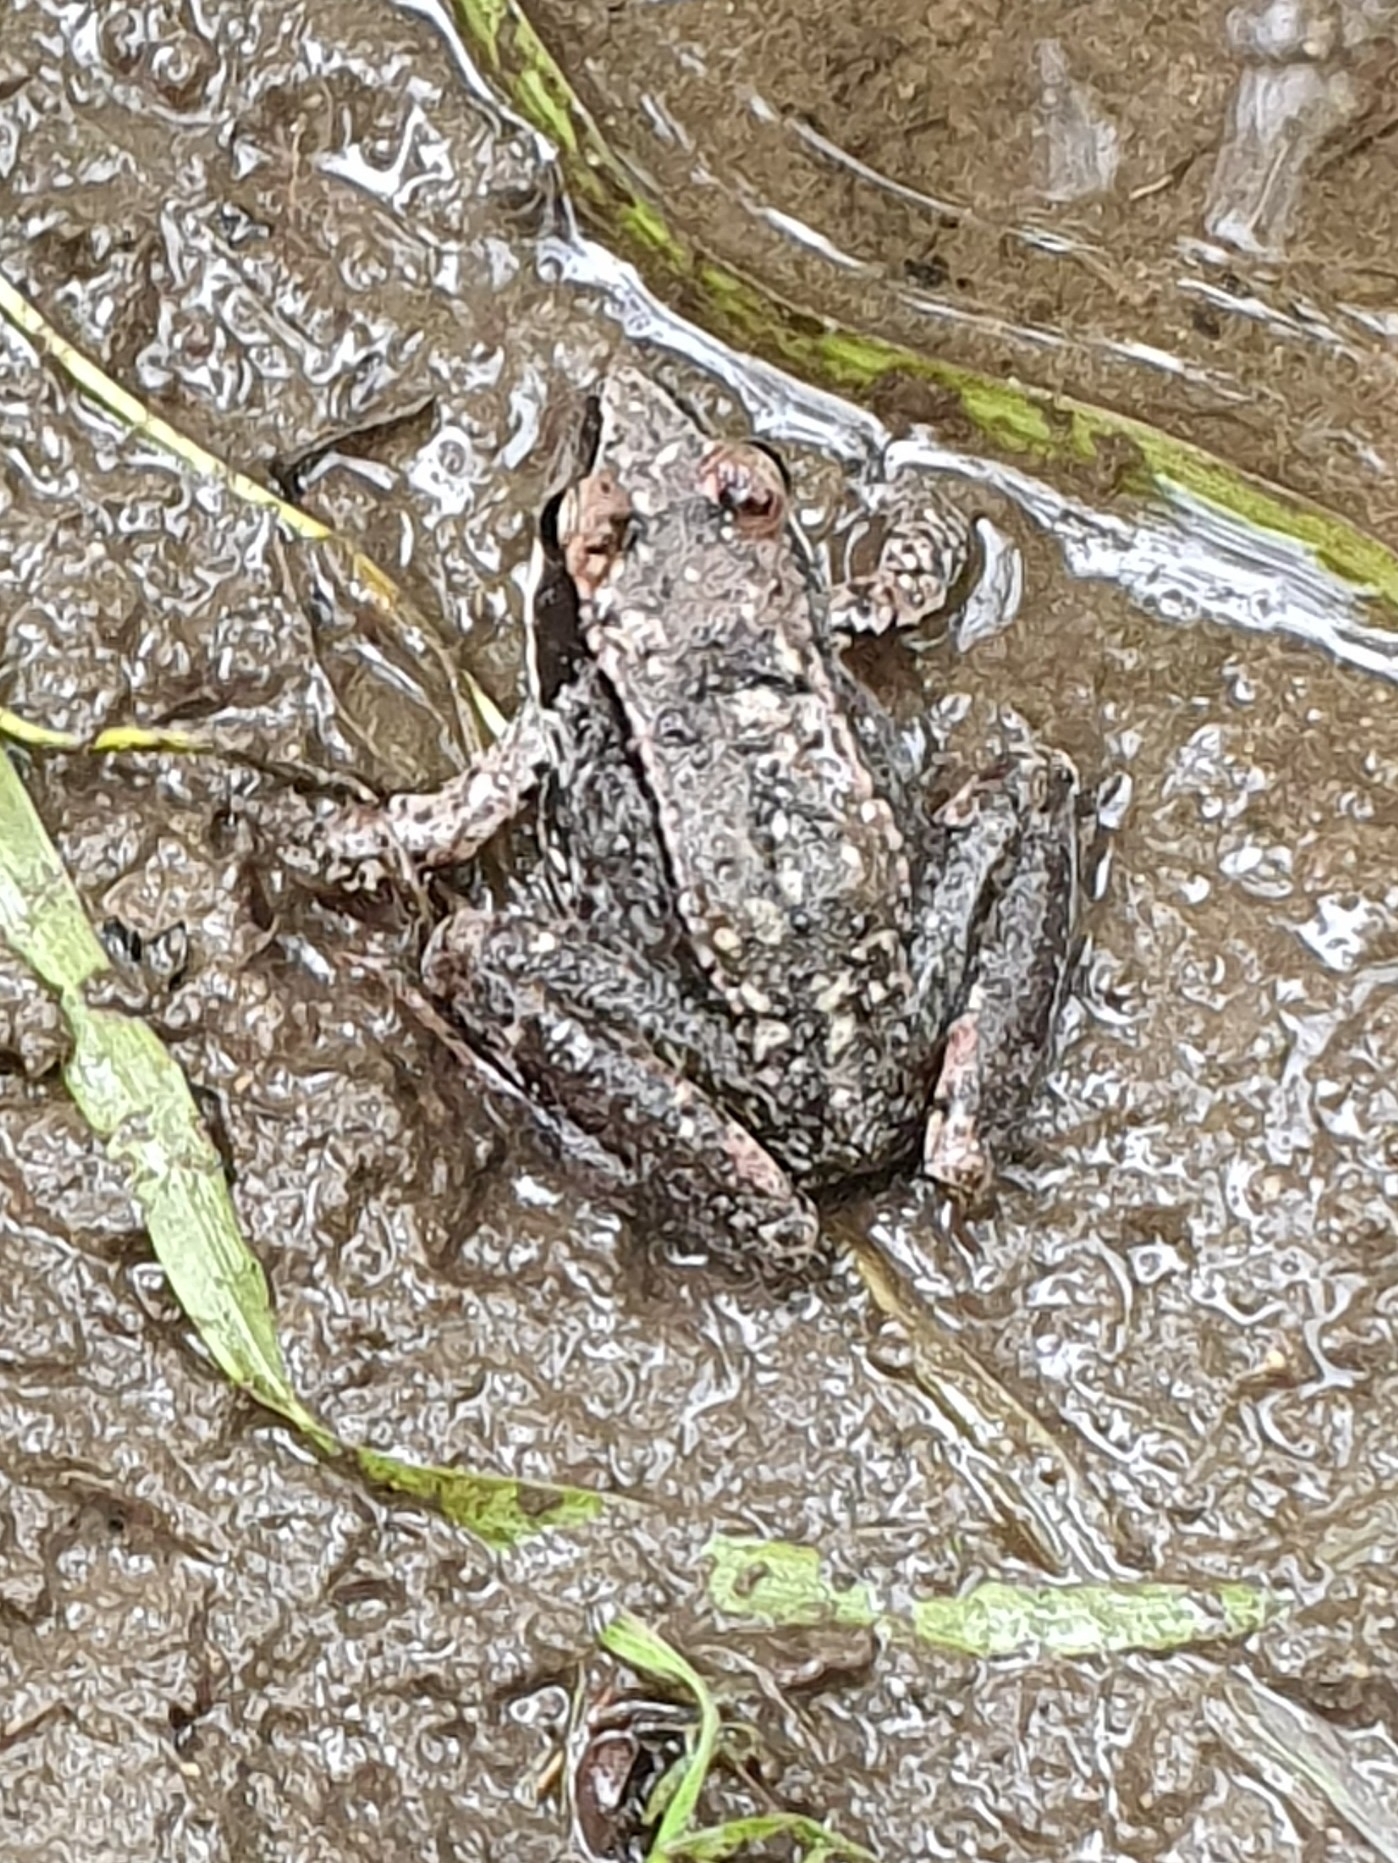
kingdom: Animalia
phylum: Chordata
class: Amphibia
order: Anura
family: Ranidae
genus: Rana
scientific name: Rana iberica
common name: Iberian frog
